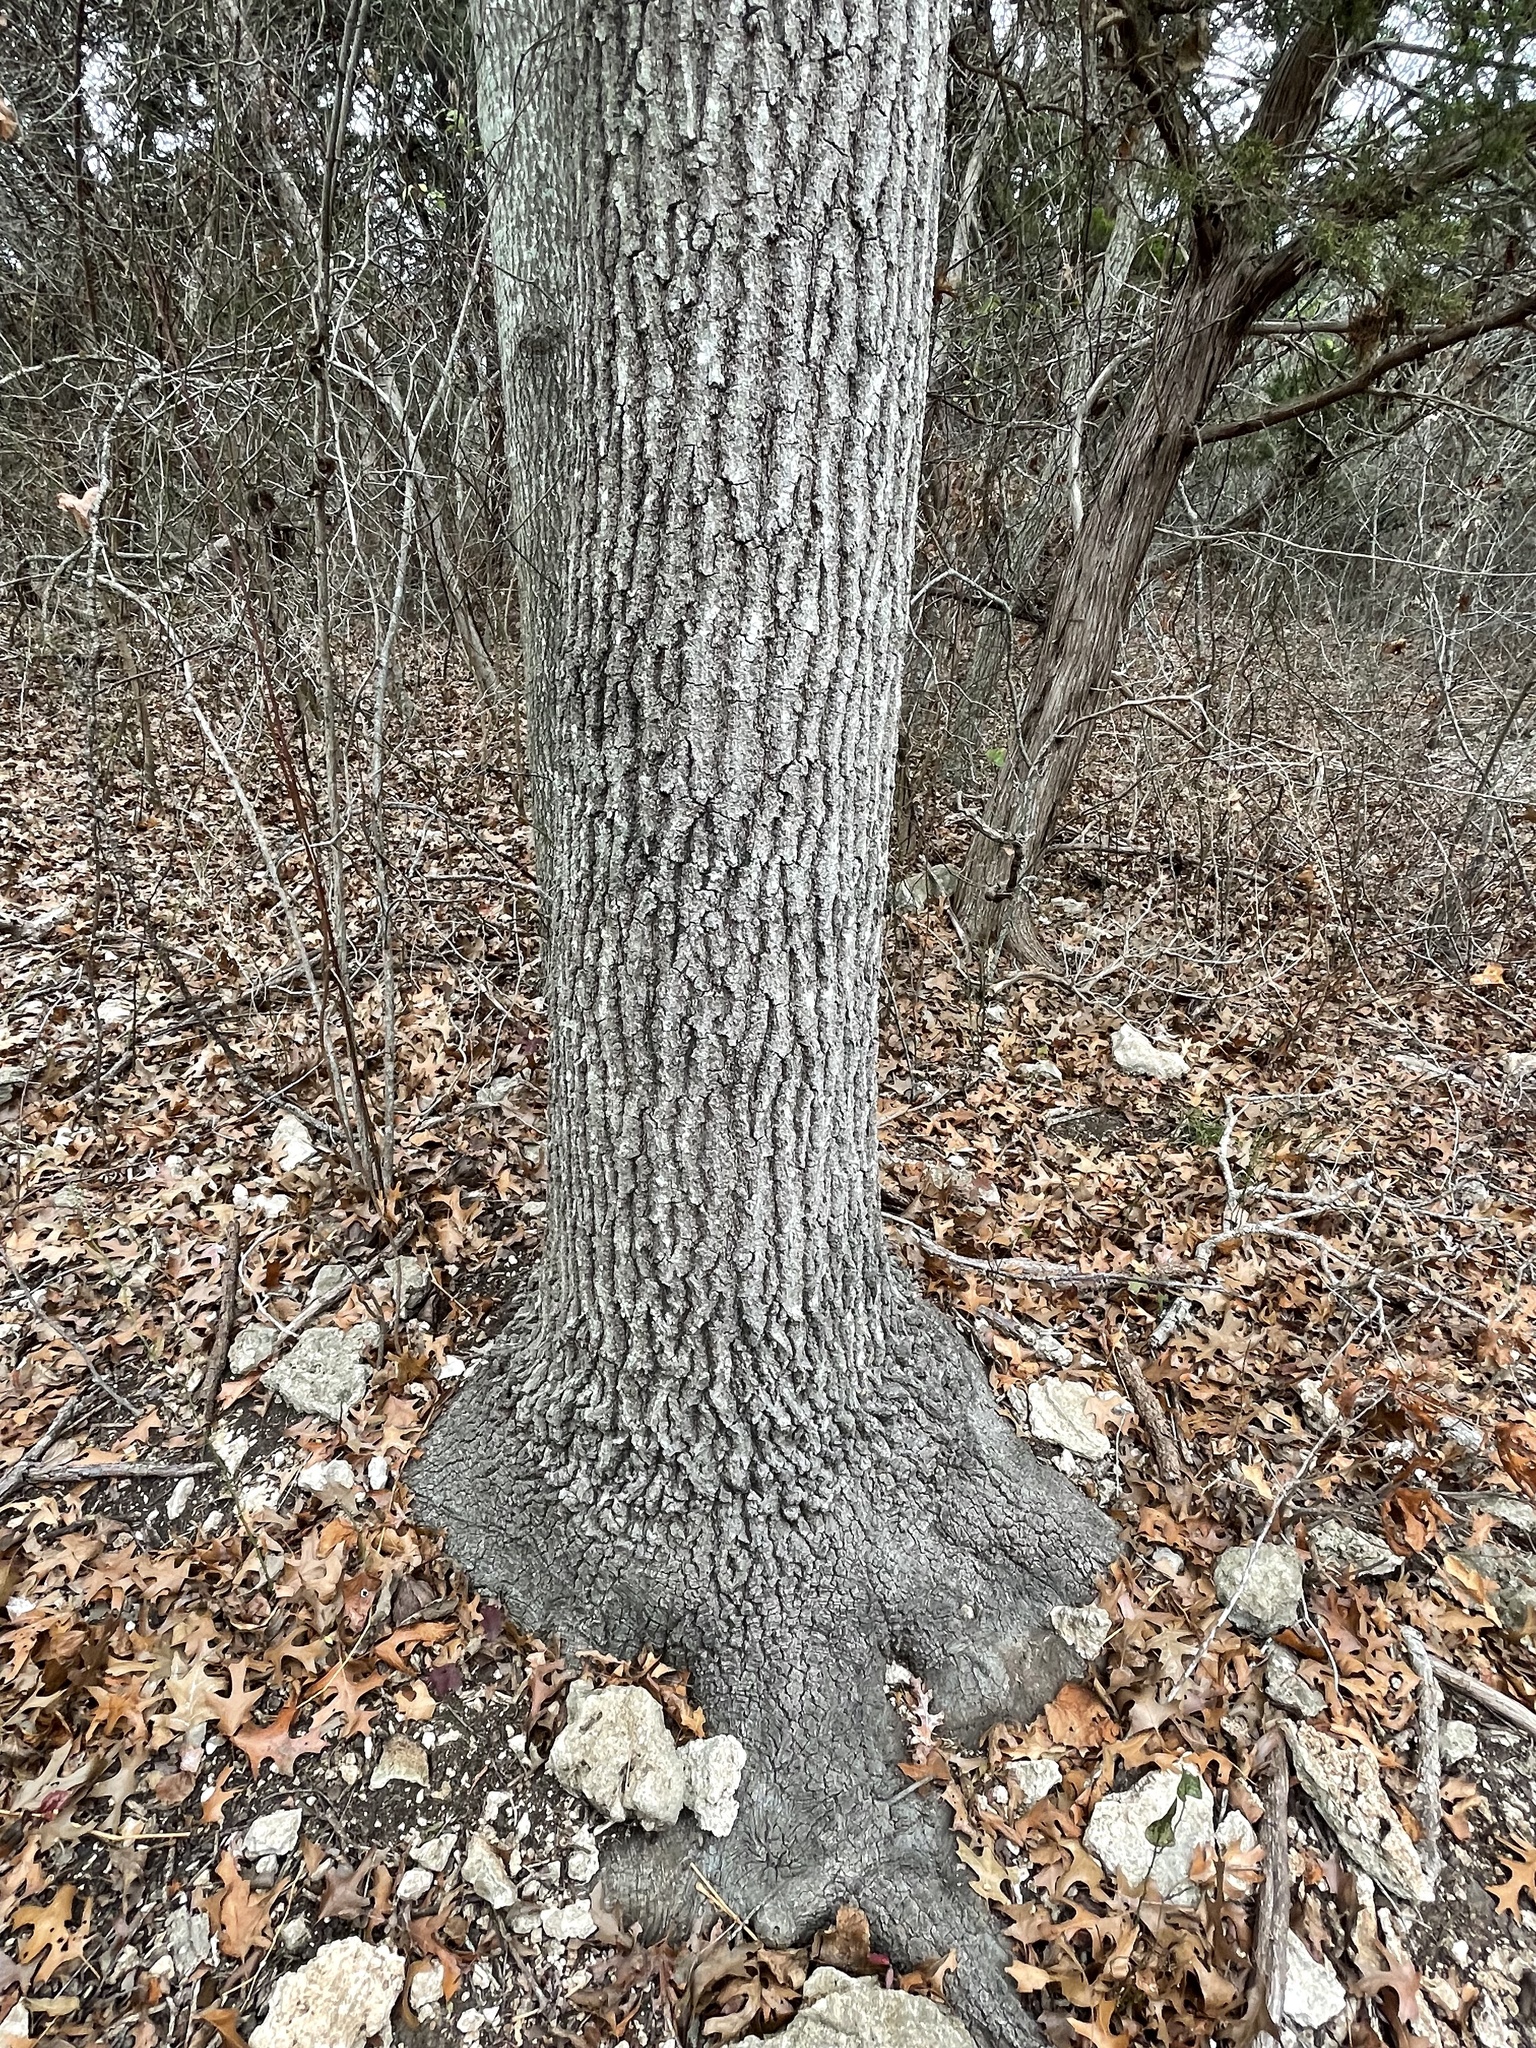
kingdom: Plantae
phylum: Tracheophyta
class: Magnoliopsida
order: Fagales
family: Fagaceae
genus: Quercus
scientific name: Quercus buckleyi
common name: Buckley oak
